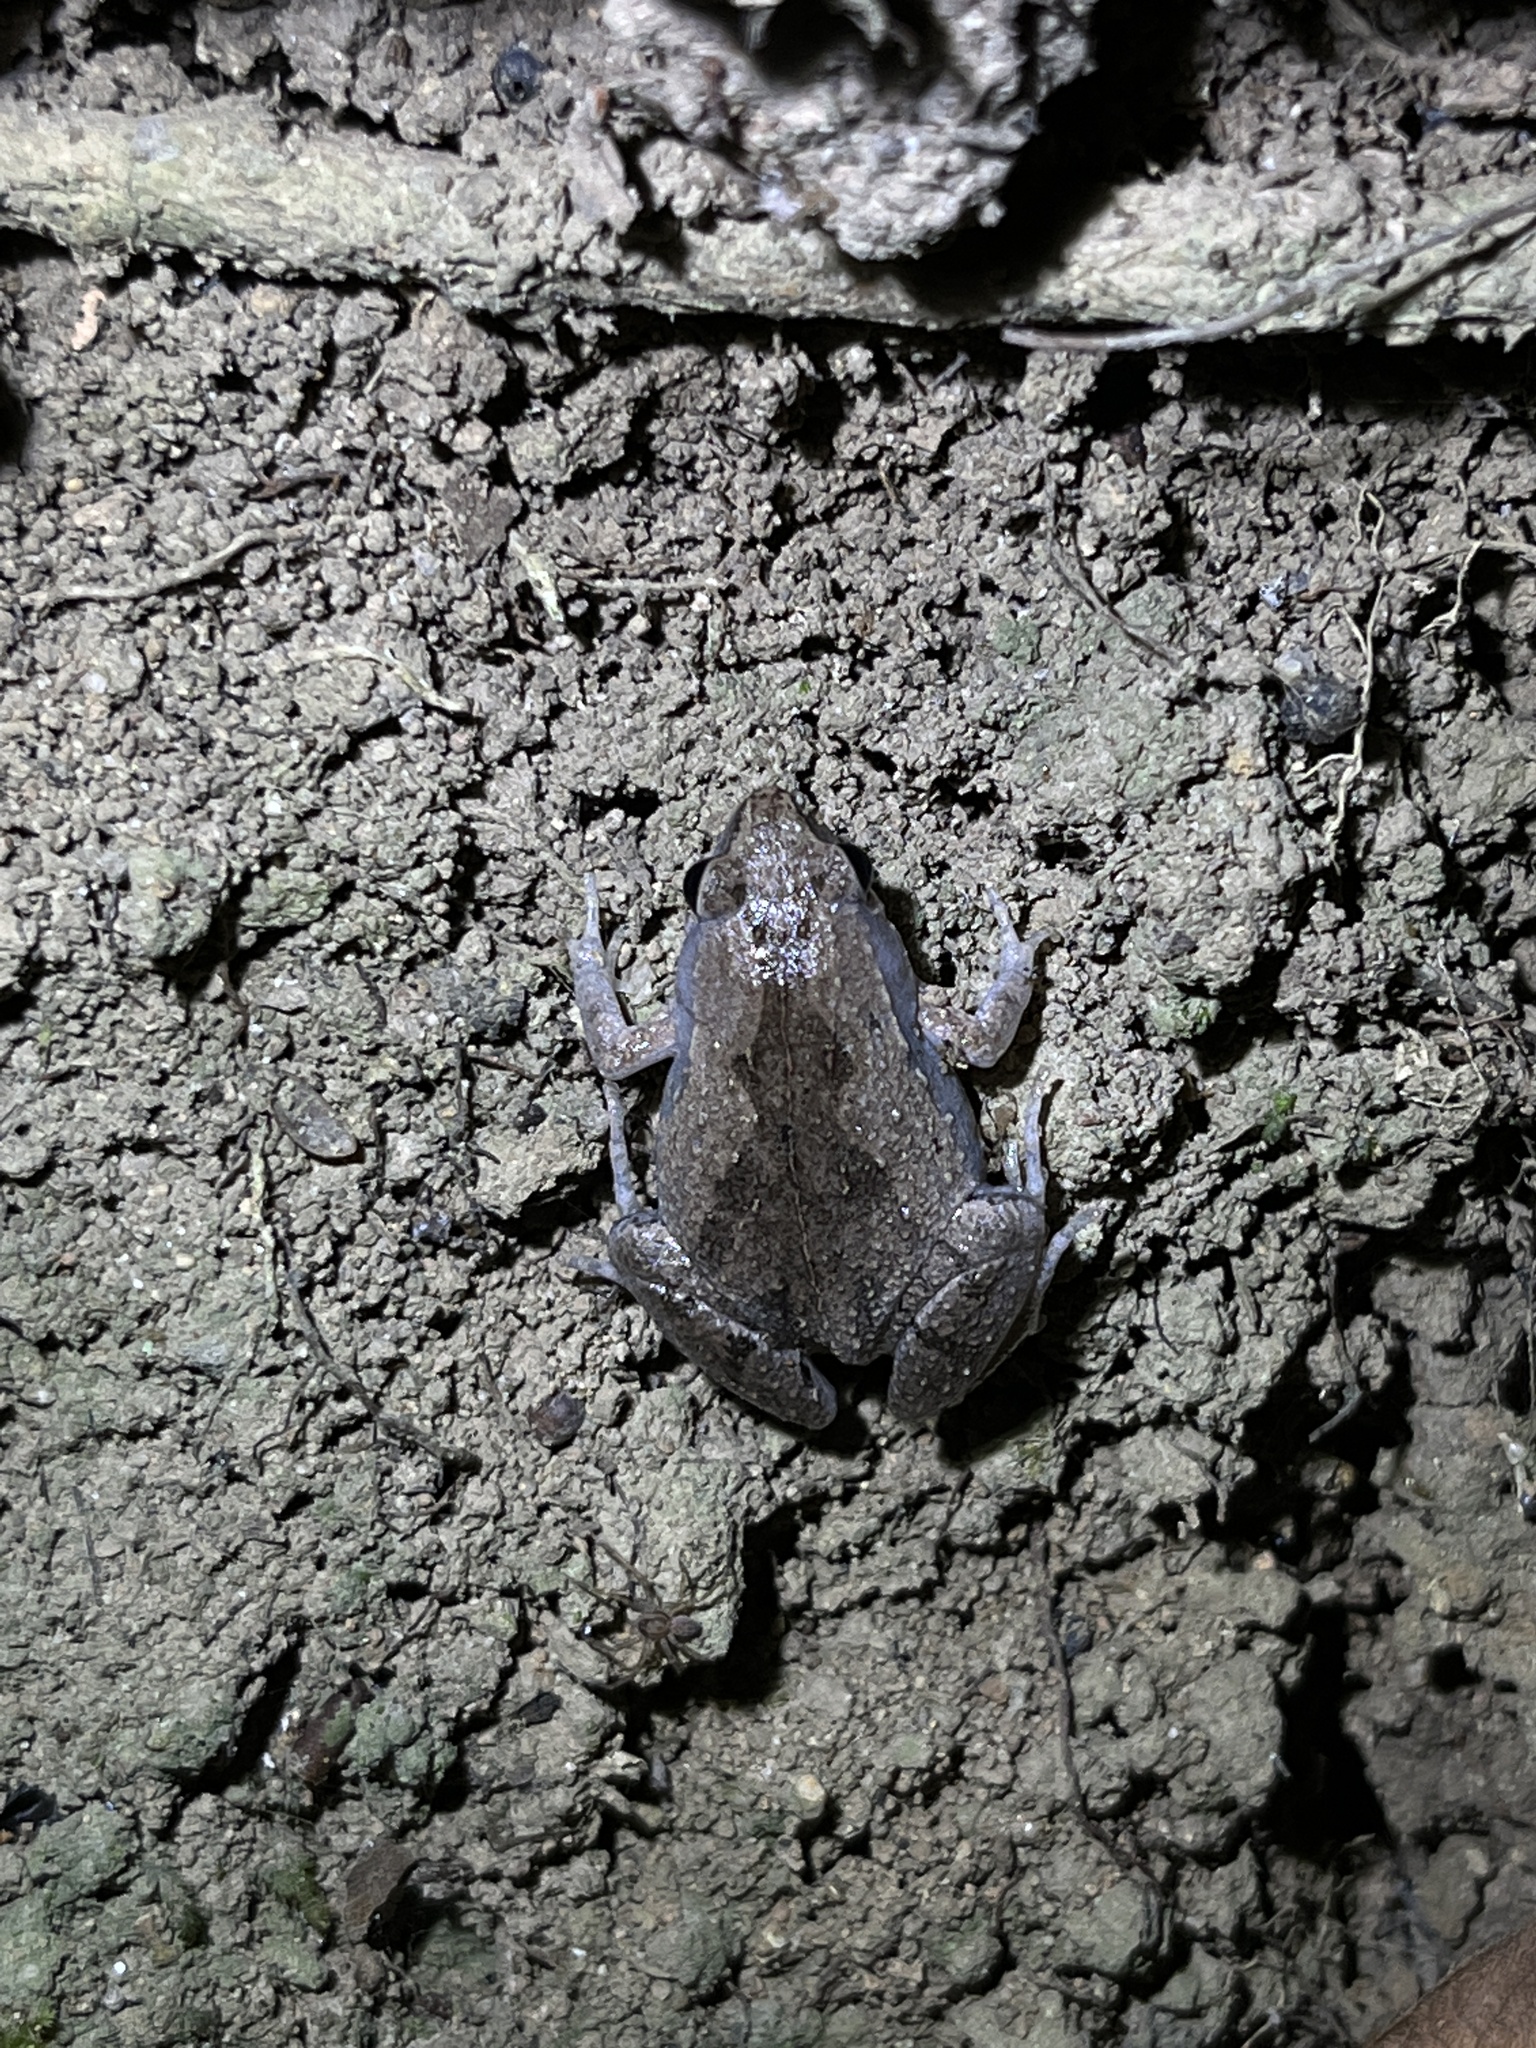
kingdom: Animalia
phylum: Chordata
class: Amphibia
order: Anura
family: Microhylidae
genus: Microhyla
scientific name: Microhyla mukhlesuri
